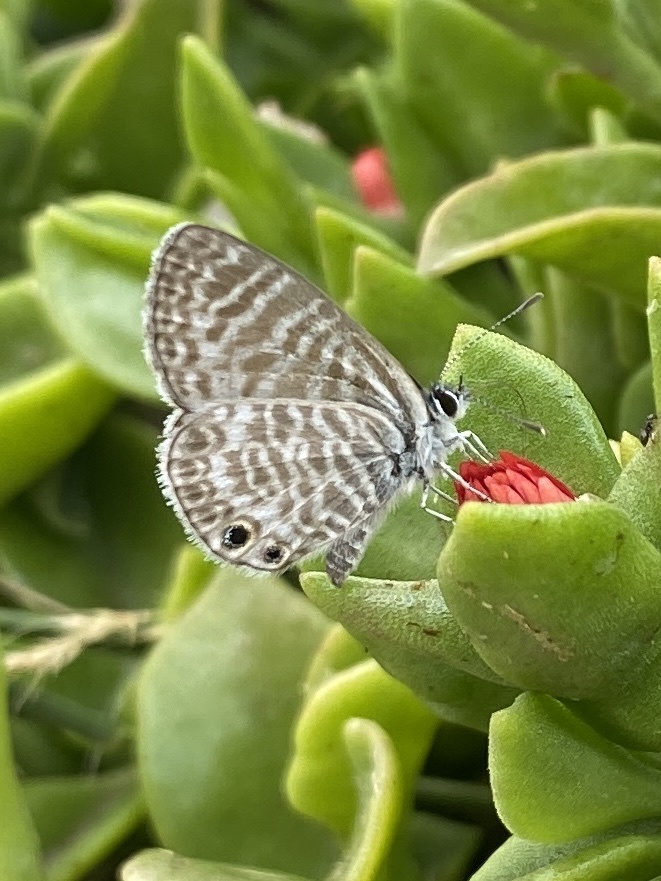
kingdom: Animalia
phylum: Arthropoda
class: Insecta
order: Lepidoptera
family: Lycaenidae
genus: Leptotes
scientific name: Leptotes marina
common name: Marine blue
